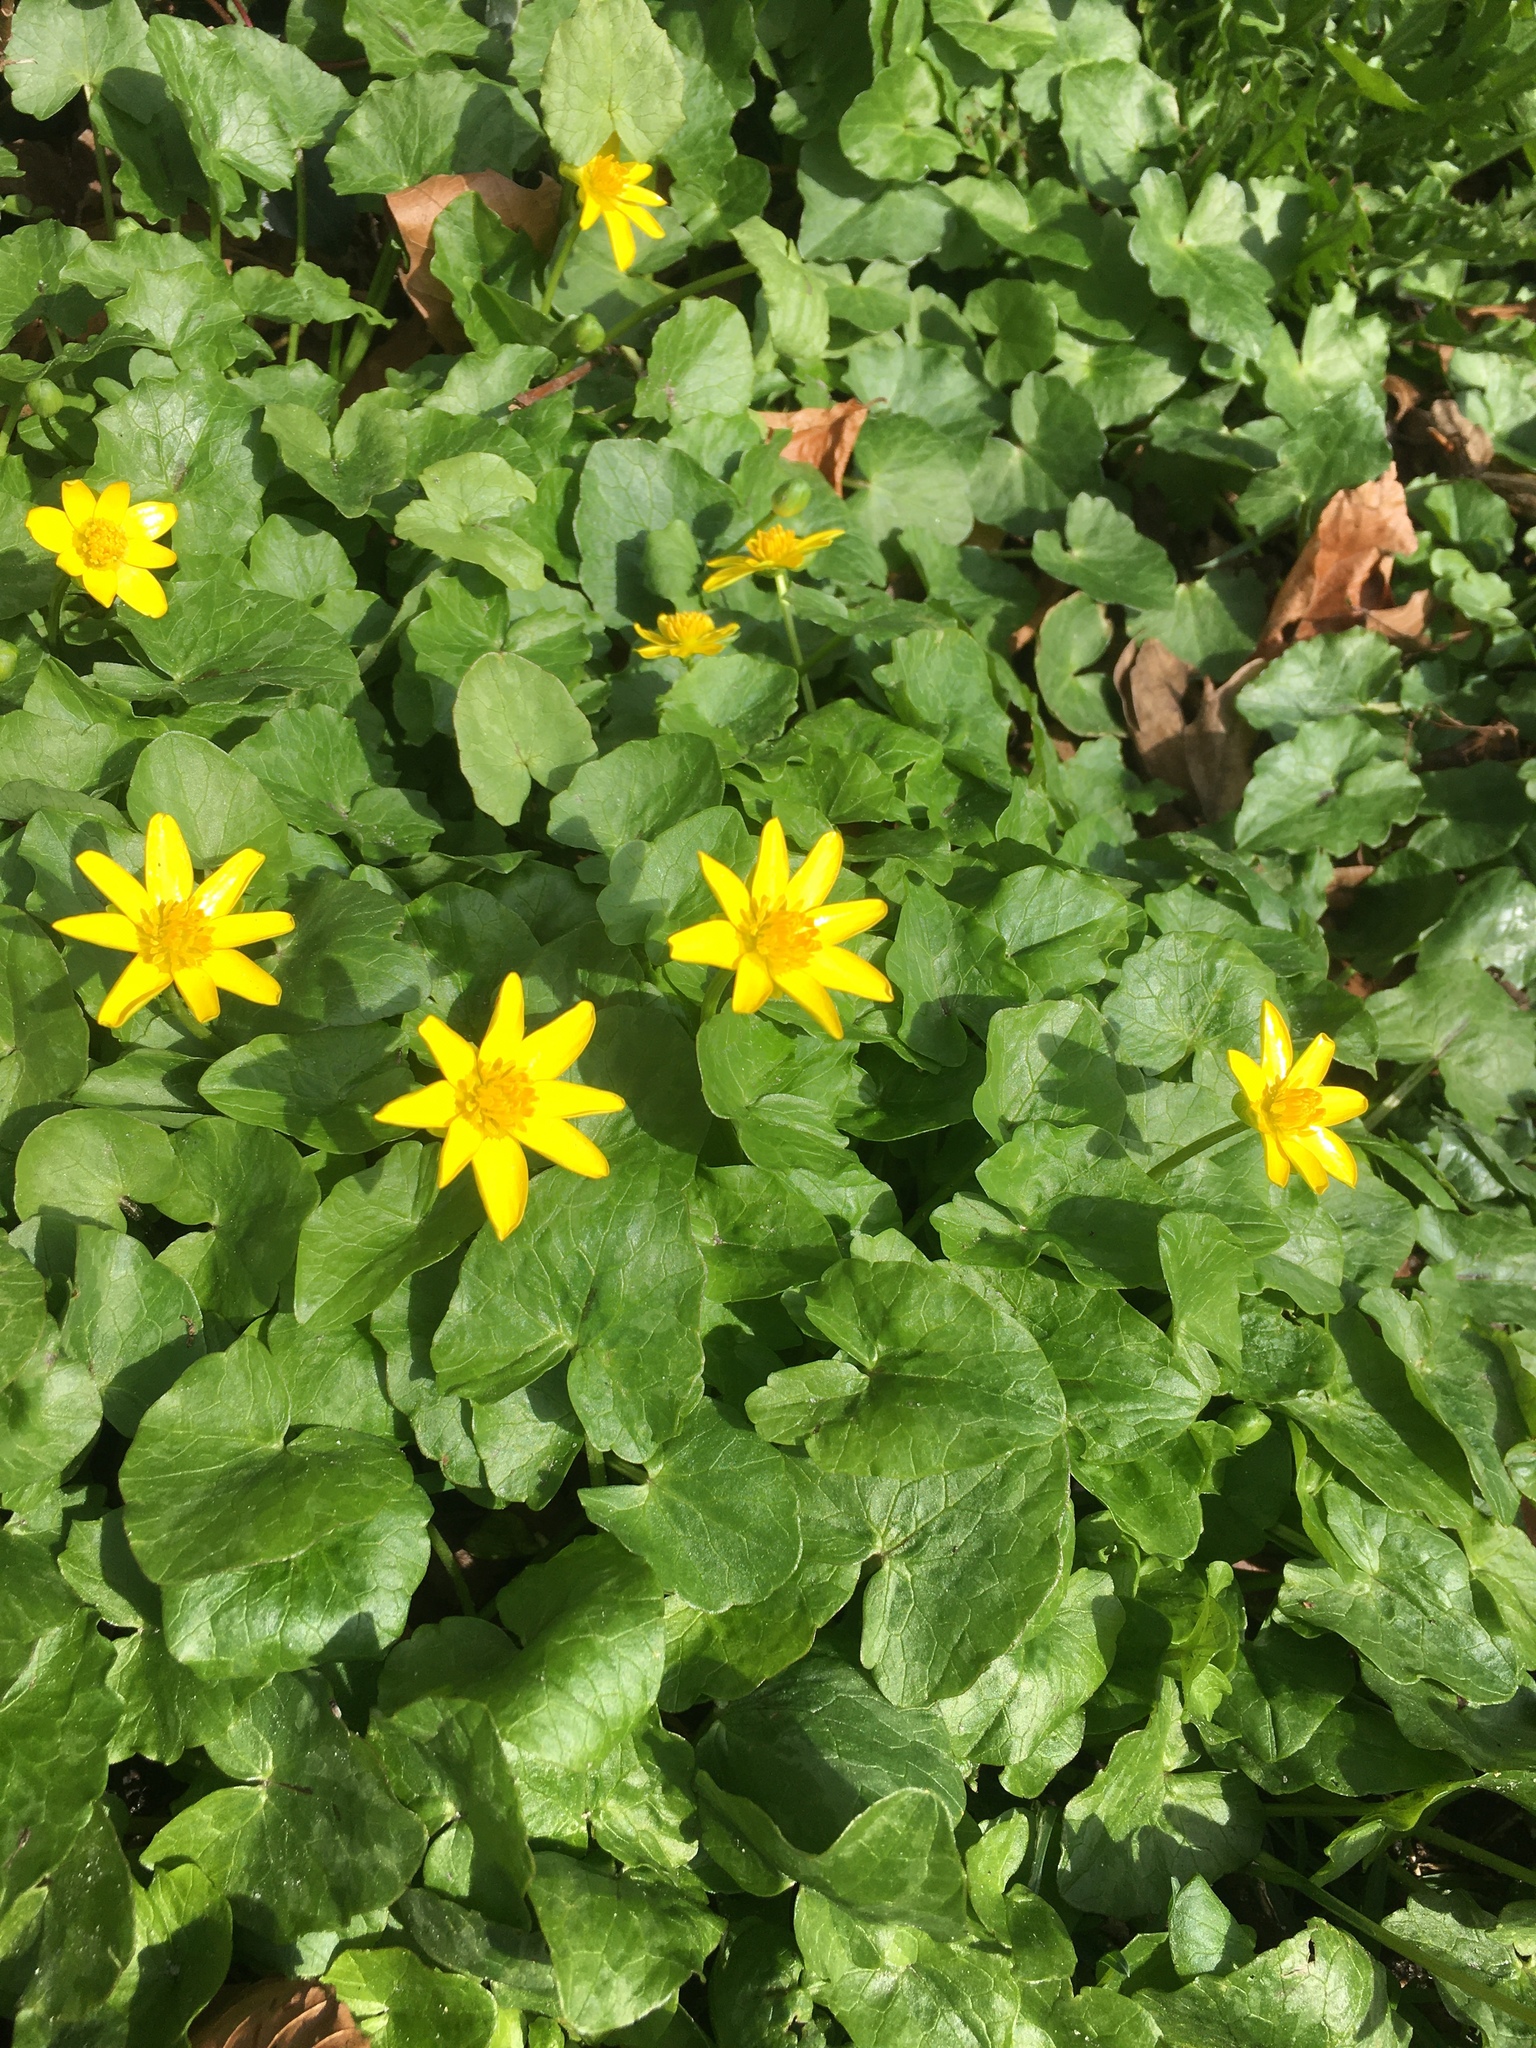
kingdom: Plantae
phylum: Tracheophyta
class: Magnoliopsida
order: Ranunculales
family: Ranunculaceae
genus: Ficaria
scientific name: Ficaria verna
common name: Lesser celandine
